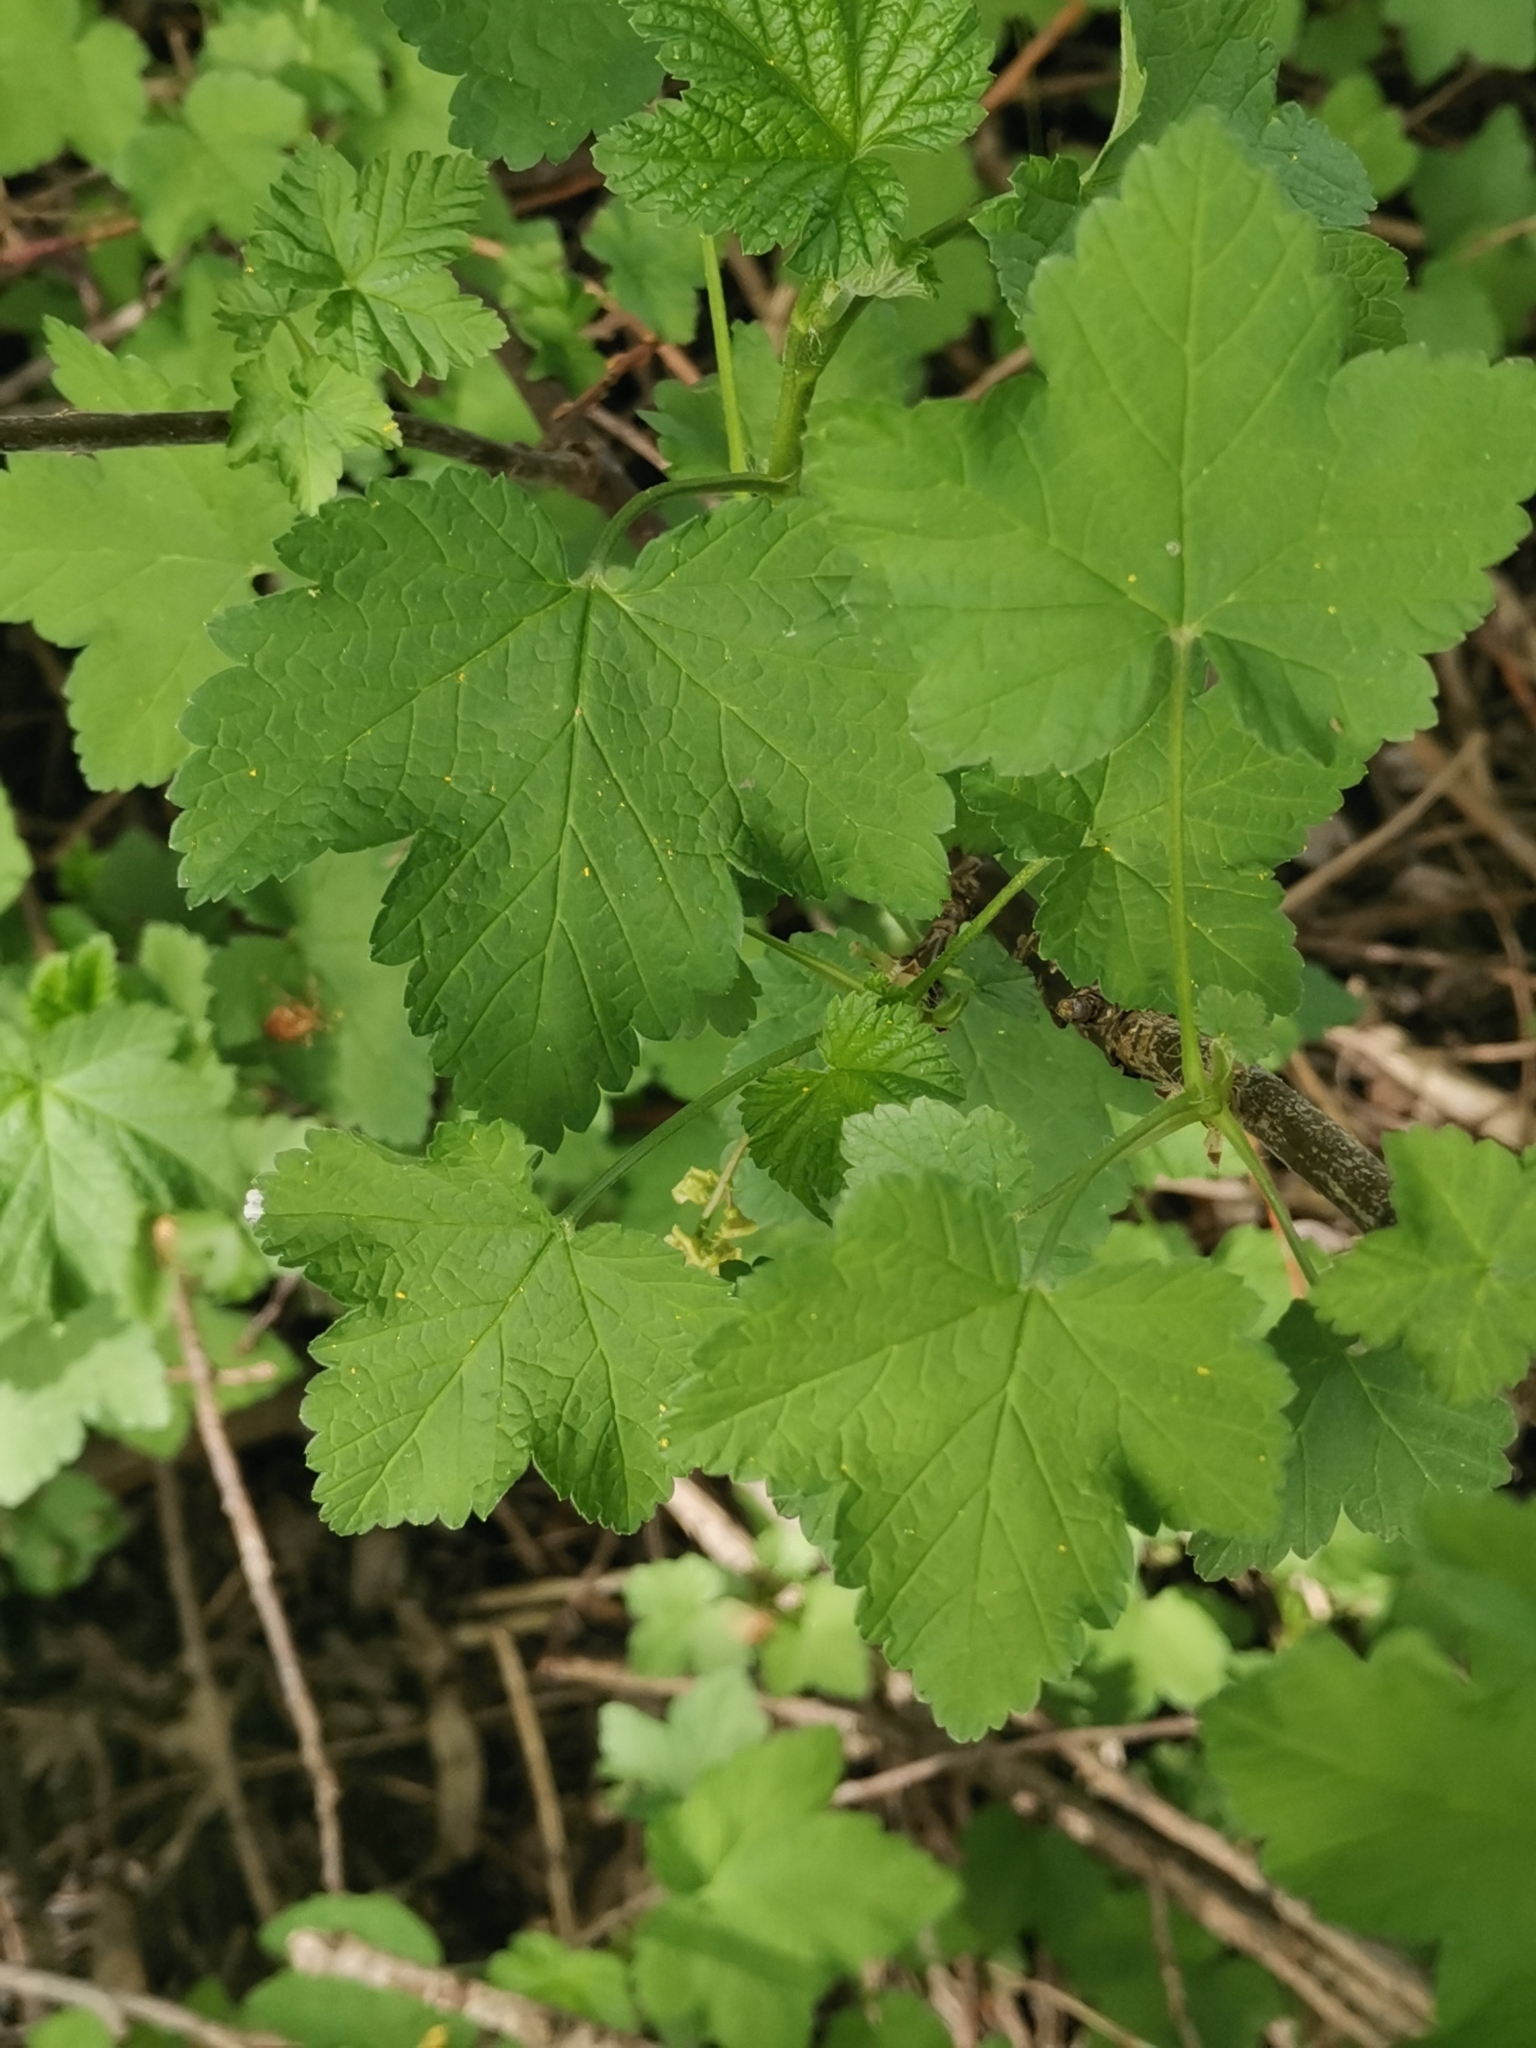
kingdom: Plantae
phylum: Tracheophyta
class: Magnoliopsida
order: Saxifragales
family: Grossulariaceae
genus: Ribes
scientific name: Ribes rubrum
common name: Red currant
